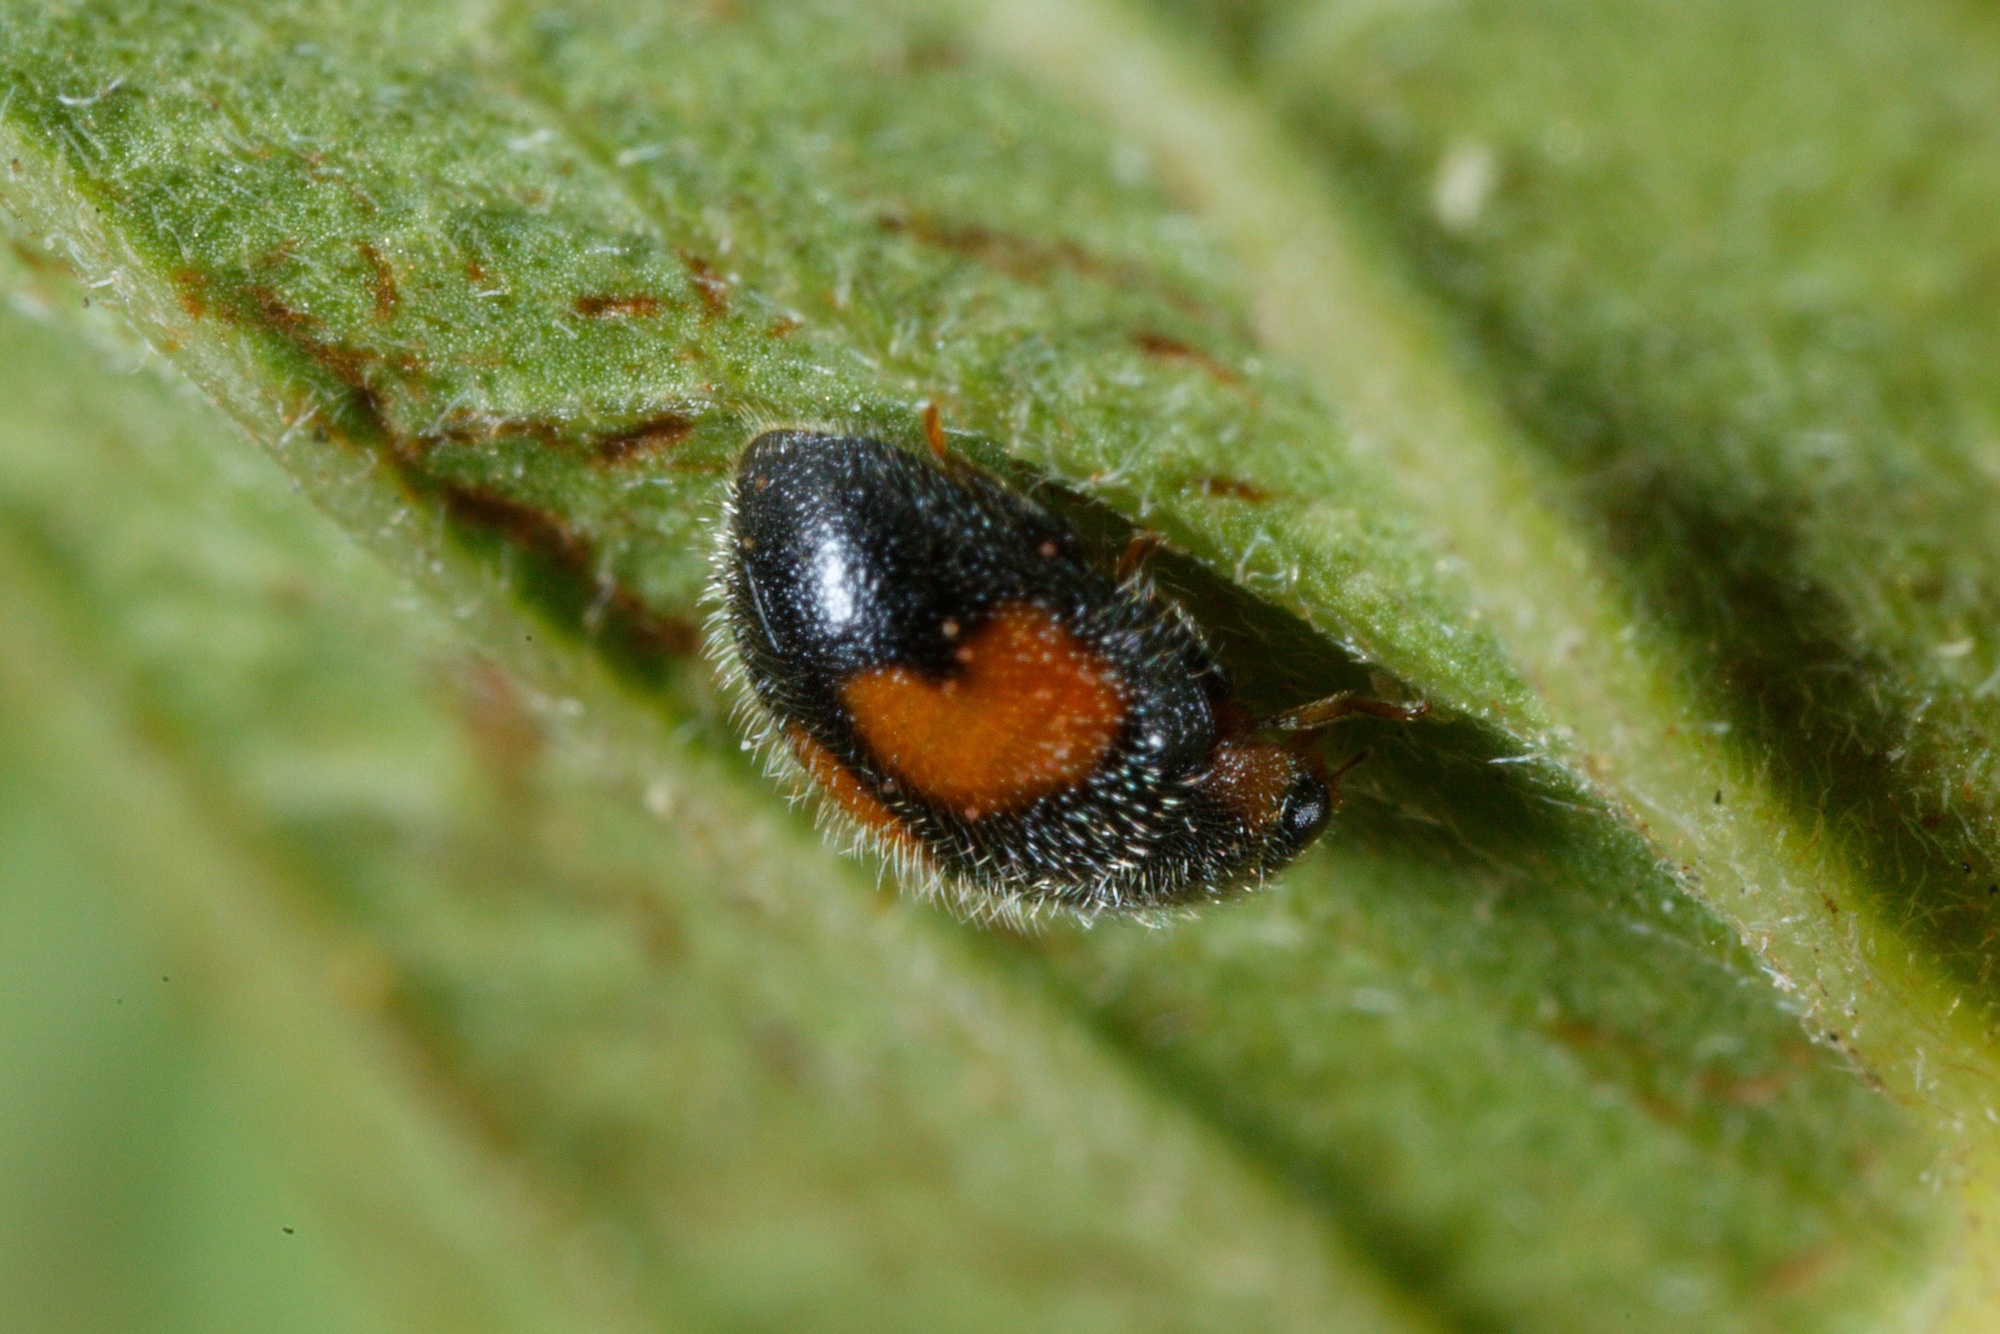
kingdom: Animalia
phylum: Arthropoda
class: Insecta
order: Coleoptera
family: Coccinellidae
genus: Scymnus
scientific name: Scymnus notescens
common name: Minute two-spotted ladybird beetle
